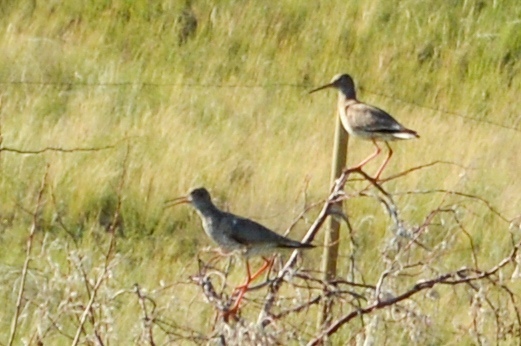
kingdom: Animalia
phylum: Chordata
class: Aves
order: Charadriiformes
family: Scolopacidae
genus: Tringa
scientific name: Tringa totanus
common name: Common redshank
